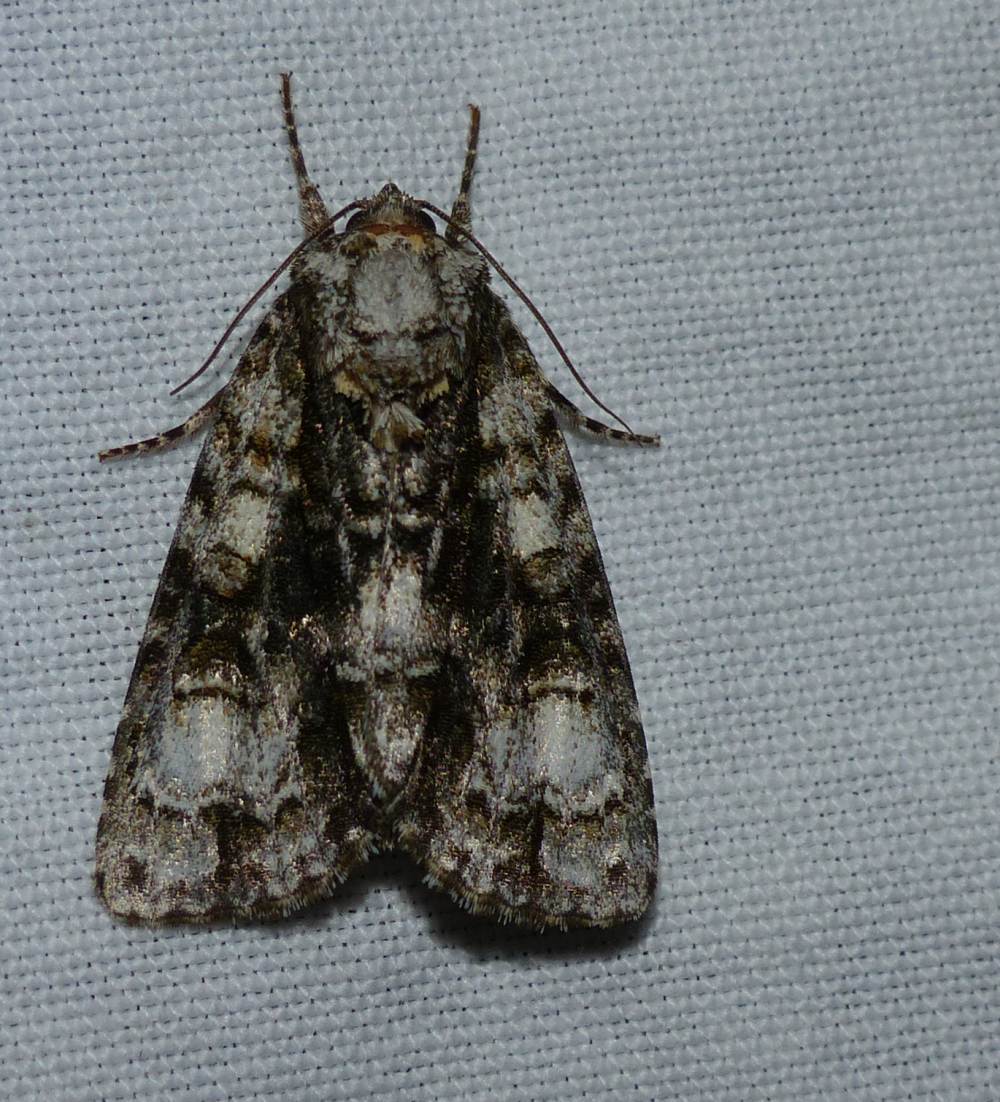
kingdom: Animalia
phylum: Arthropoda
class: Insecta
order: Lepidoptera
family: Noctuidae
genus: Acronicta
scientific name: Acronicta superans
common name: Splendid dagger
